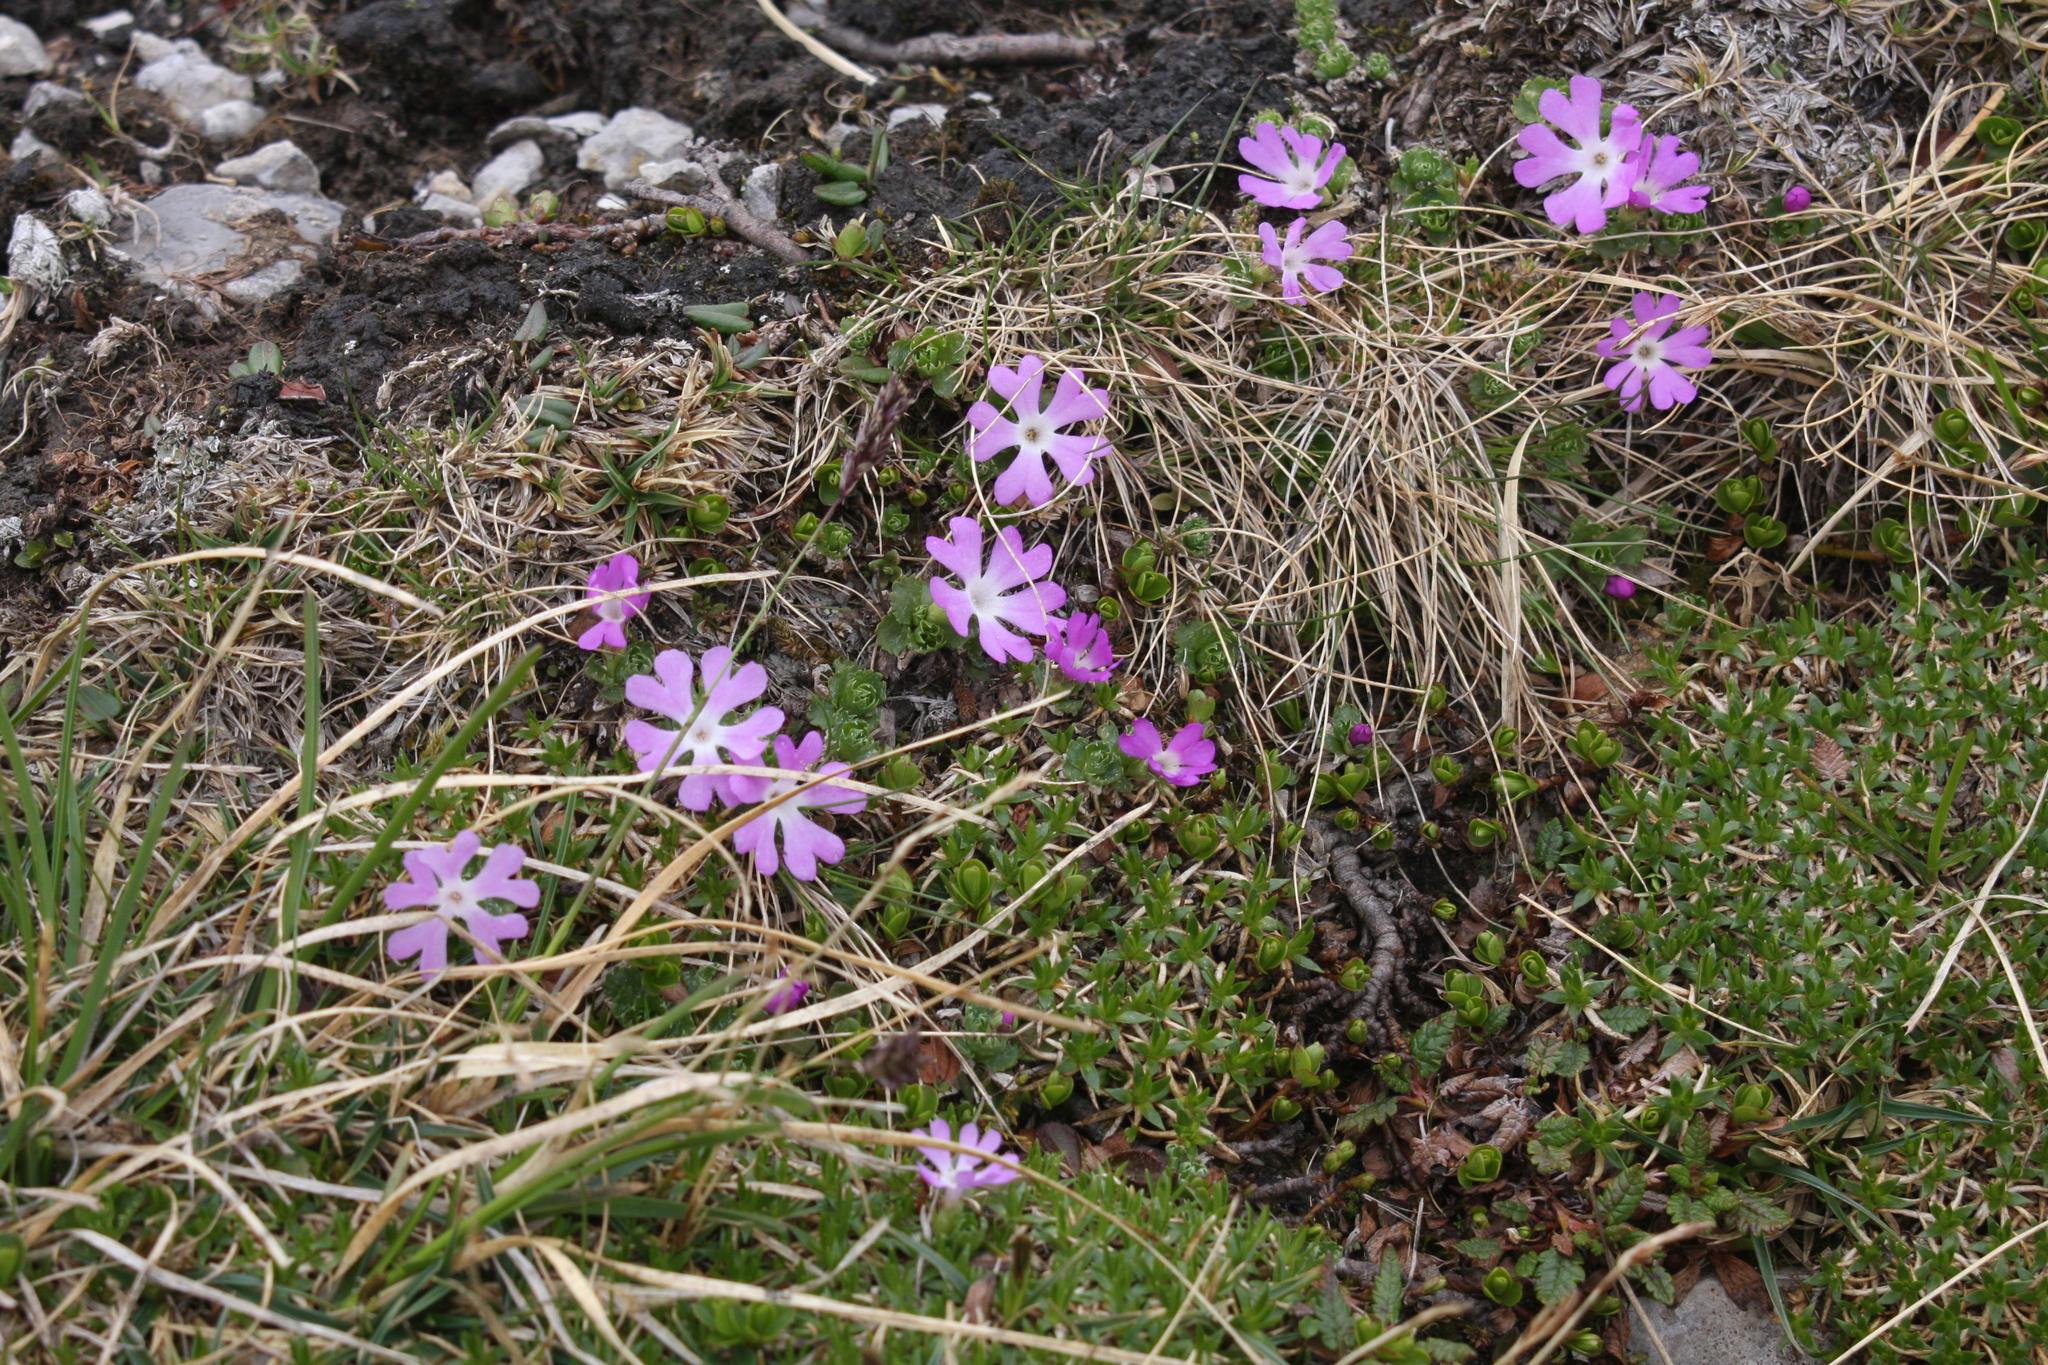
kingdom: Plantae
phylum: Tracheophyta
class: Magnoliopsida
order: Ericales
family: Primulaceae
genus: Primula
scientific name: Primula minima
